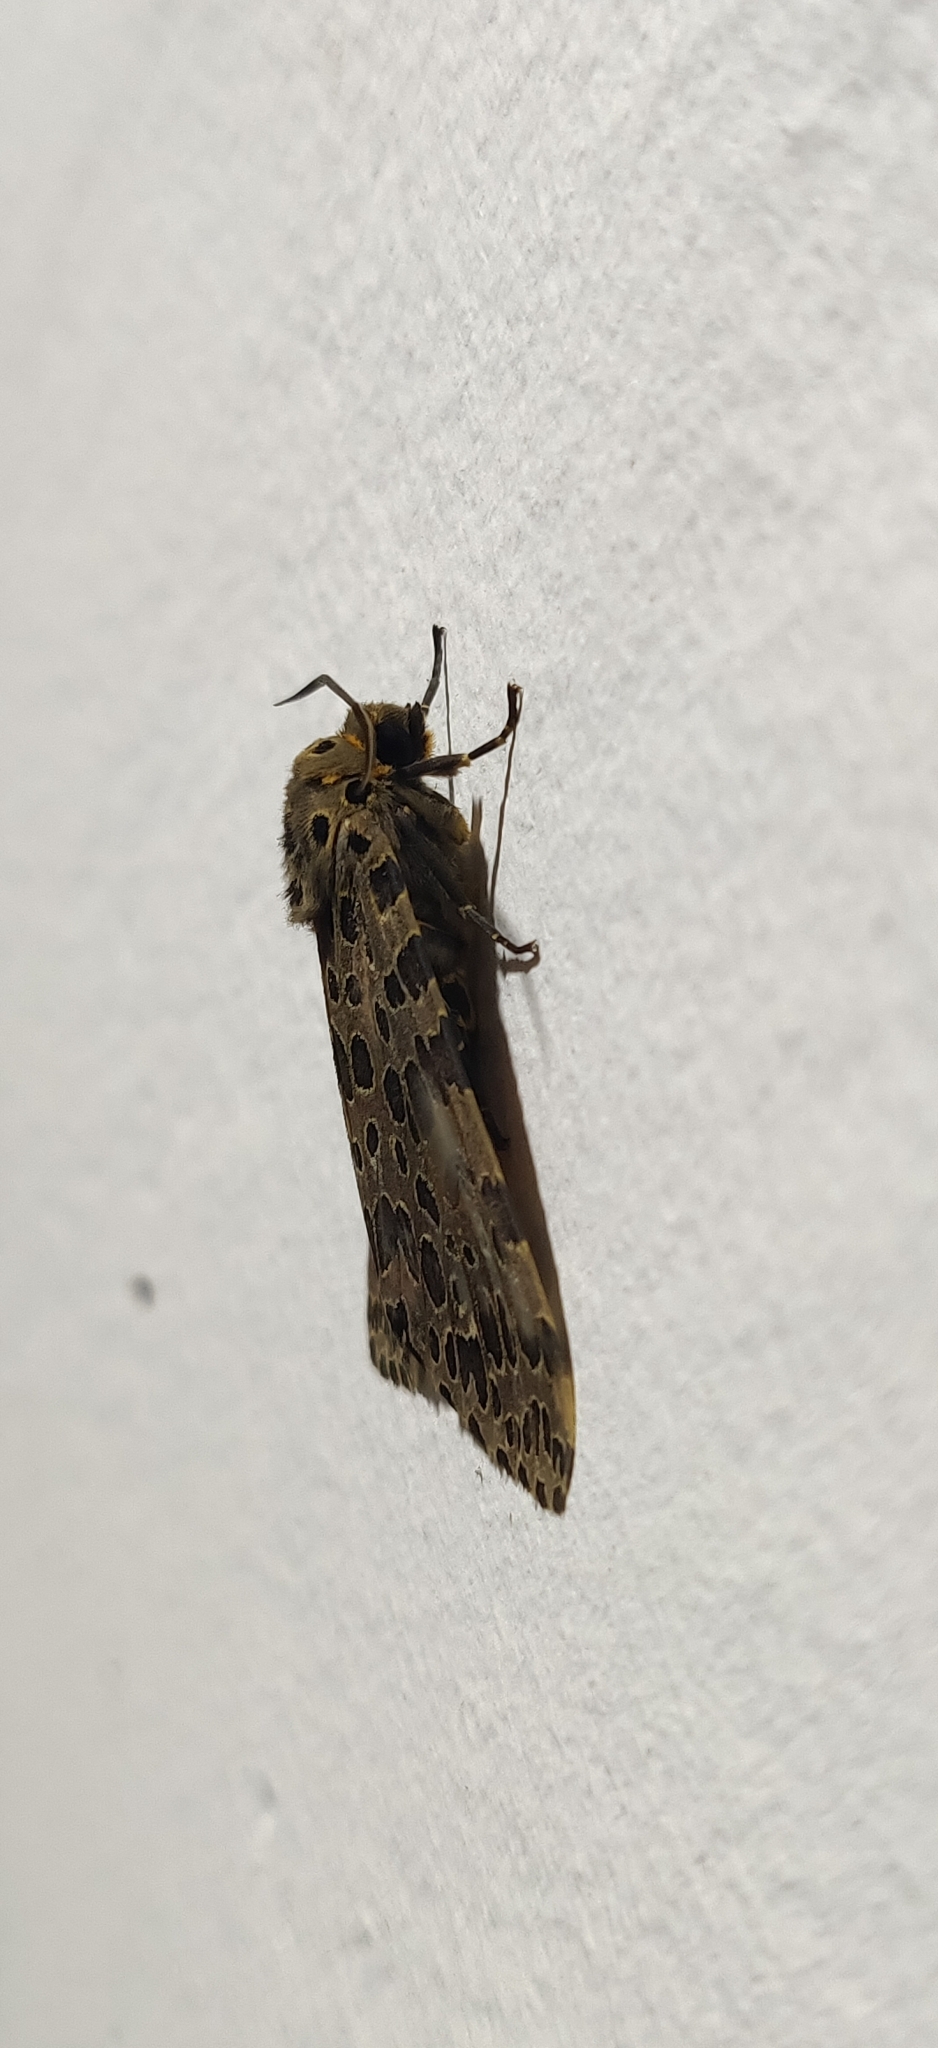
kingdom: Animalia
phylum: Arthropoda
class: Insecta
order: Lepidoptera
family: Erebidae
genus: Olepa
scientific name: Olepa ricini
